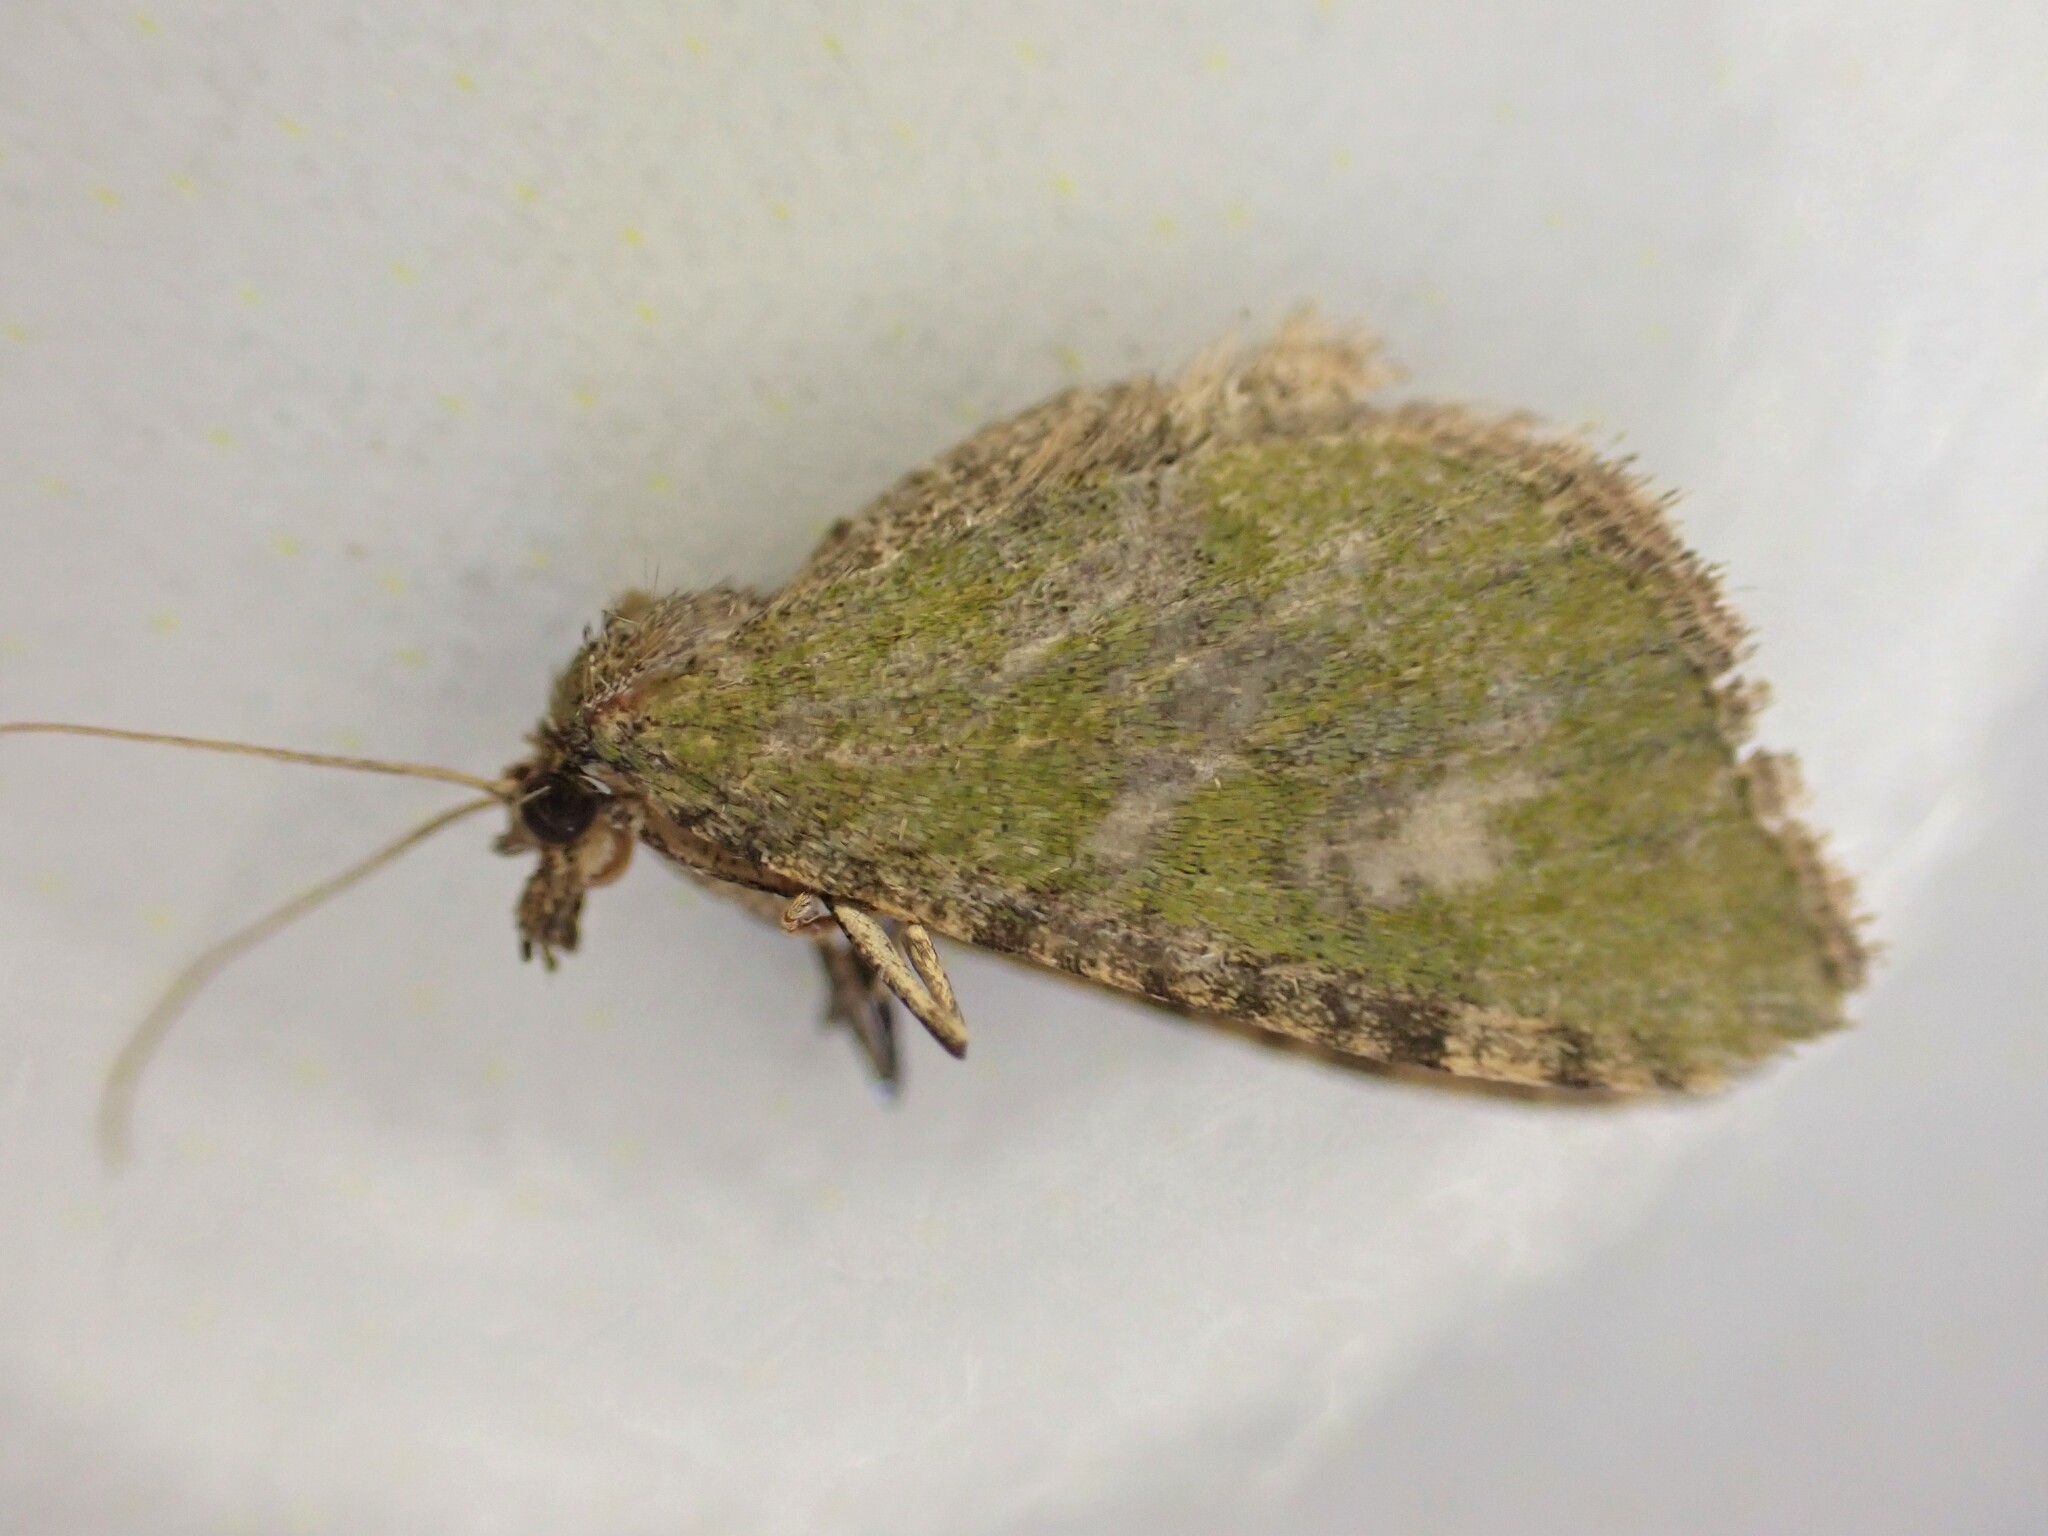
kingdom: Animalia
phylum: Arthropoda
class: Insecta
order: Lepidoptera
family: Geometridae
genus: Epyaxa
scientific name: Epyaxa rosearia
